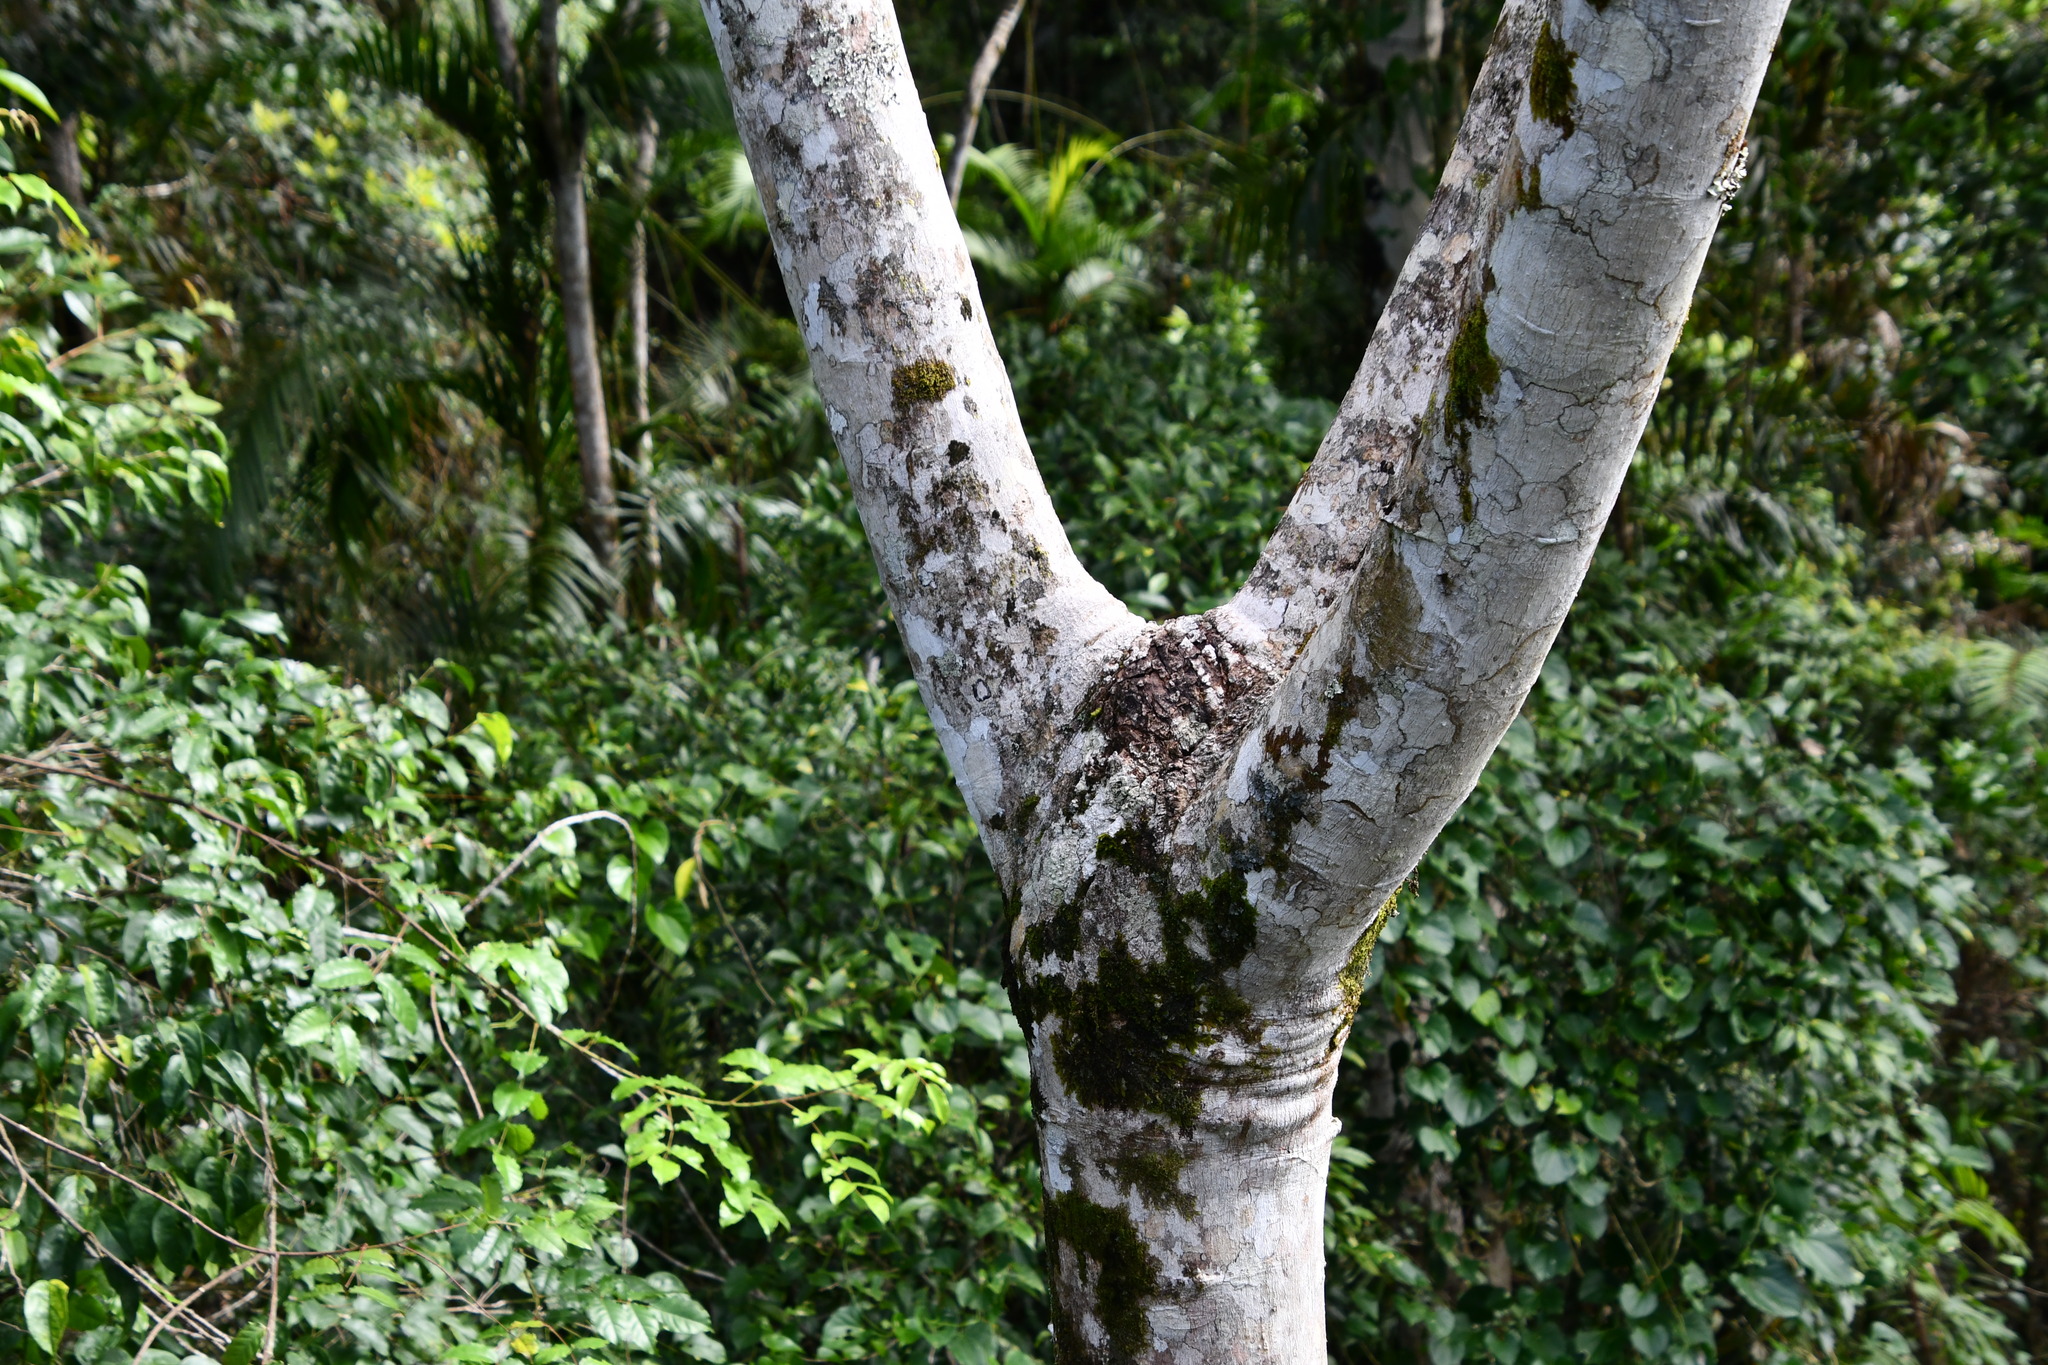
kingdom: Plantae
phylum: Tracheophyta
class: Magnoliopsida
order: Apiales
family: Araliaceae
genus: Polyscias
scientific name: Polyscias murrayi
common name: Pencil cedar
